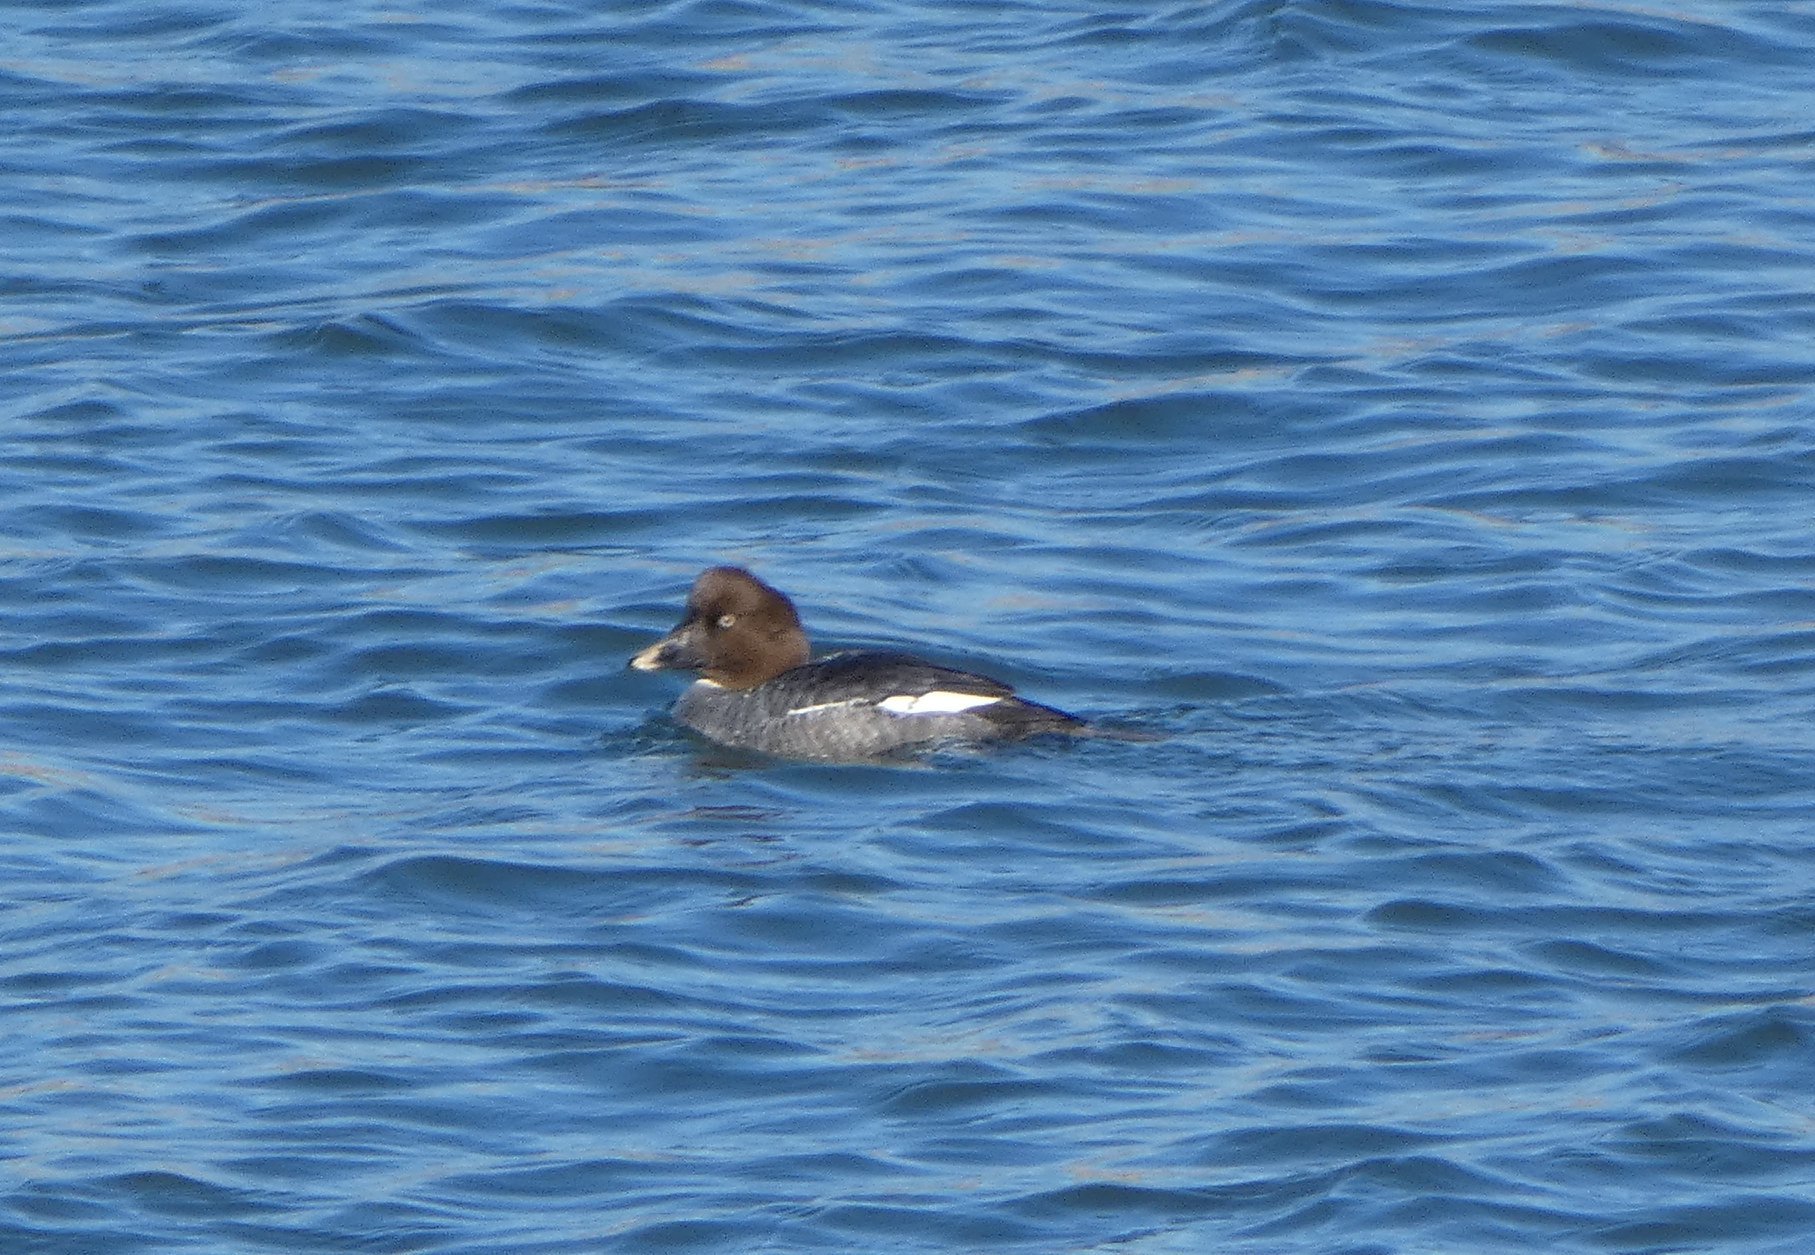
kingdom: Animalia
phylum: Chordata
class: Aves
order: Anseriformes
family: Anatidae
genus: Bucephala
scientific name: Bucephala clangula
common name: Common goldeneye
